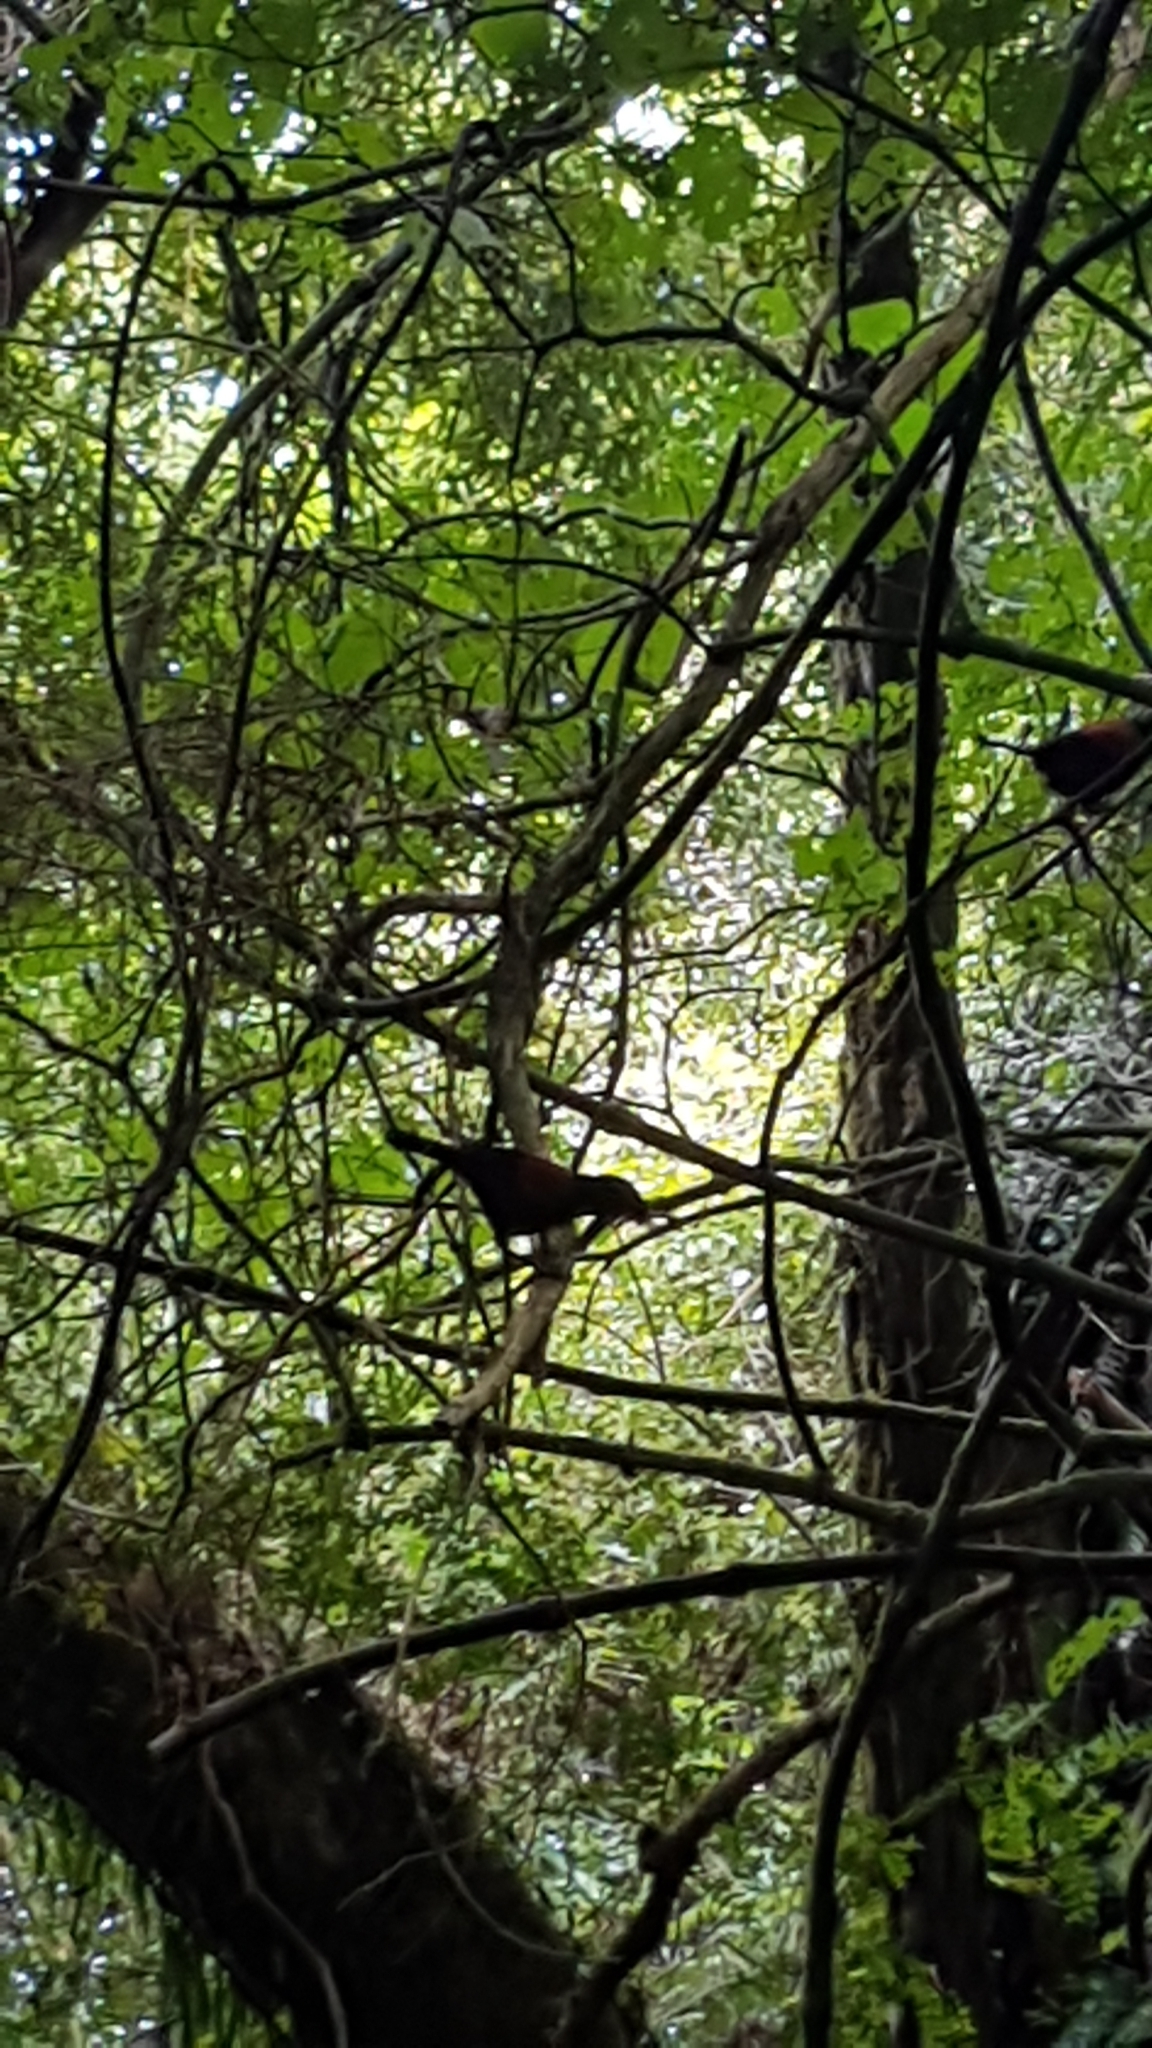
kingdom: Animalia
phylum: Chordata
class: Aves
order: Passeriformes
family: Callaeatidae
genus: Philesturnus
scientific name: Philesturnus carunculatus
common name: South island saddleback
